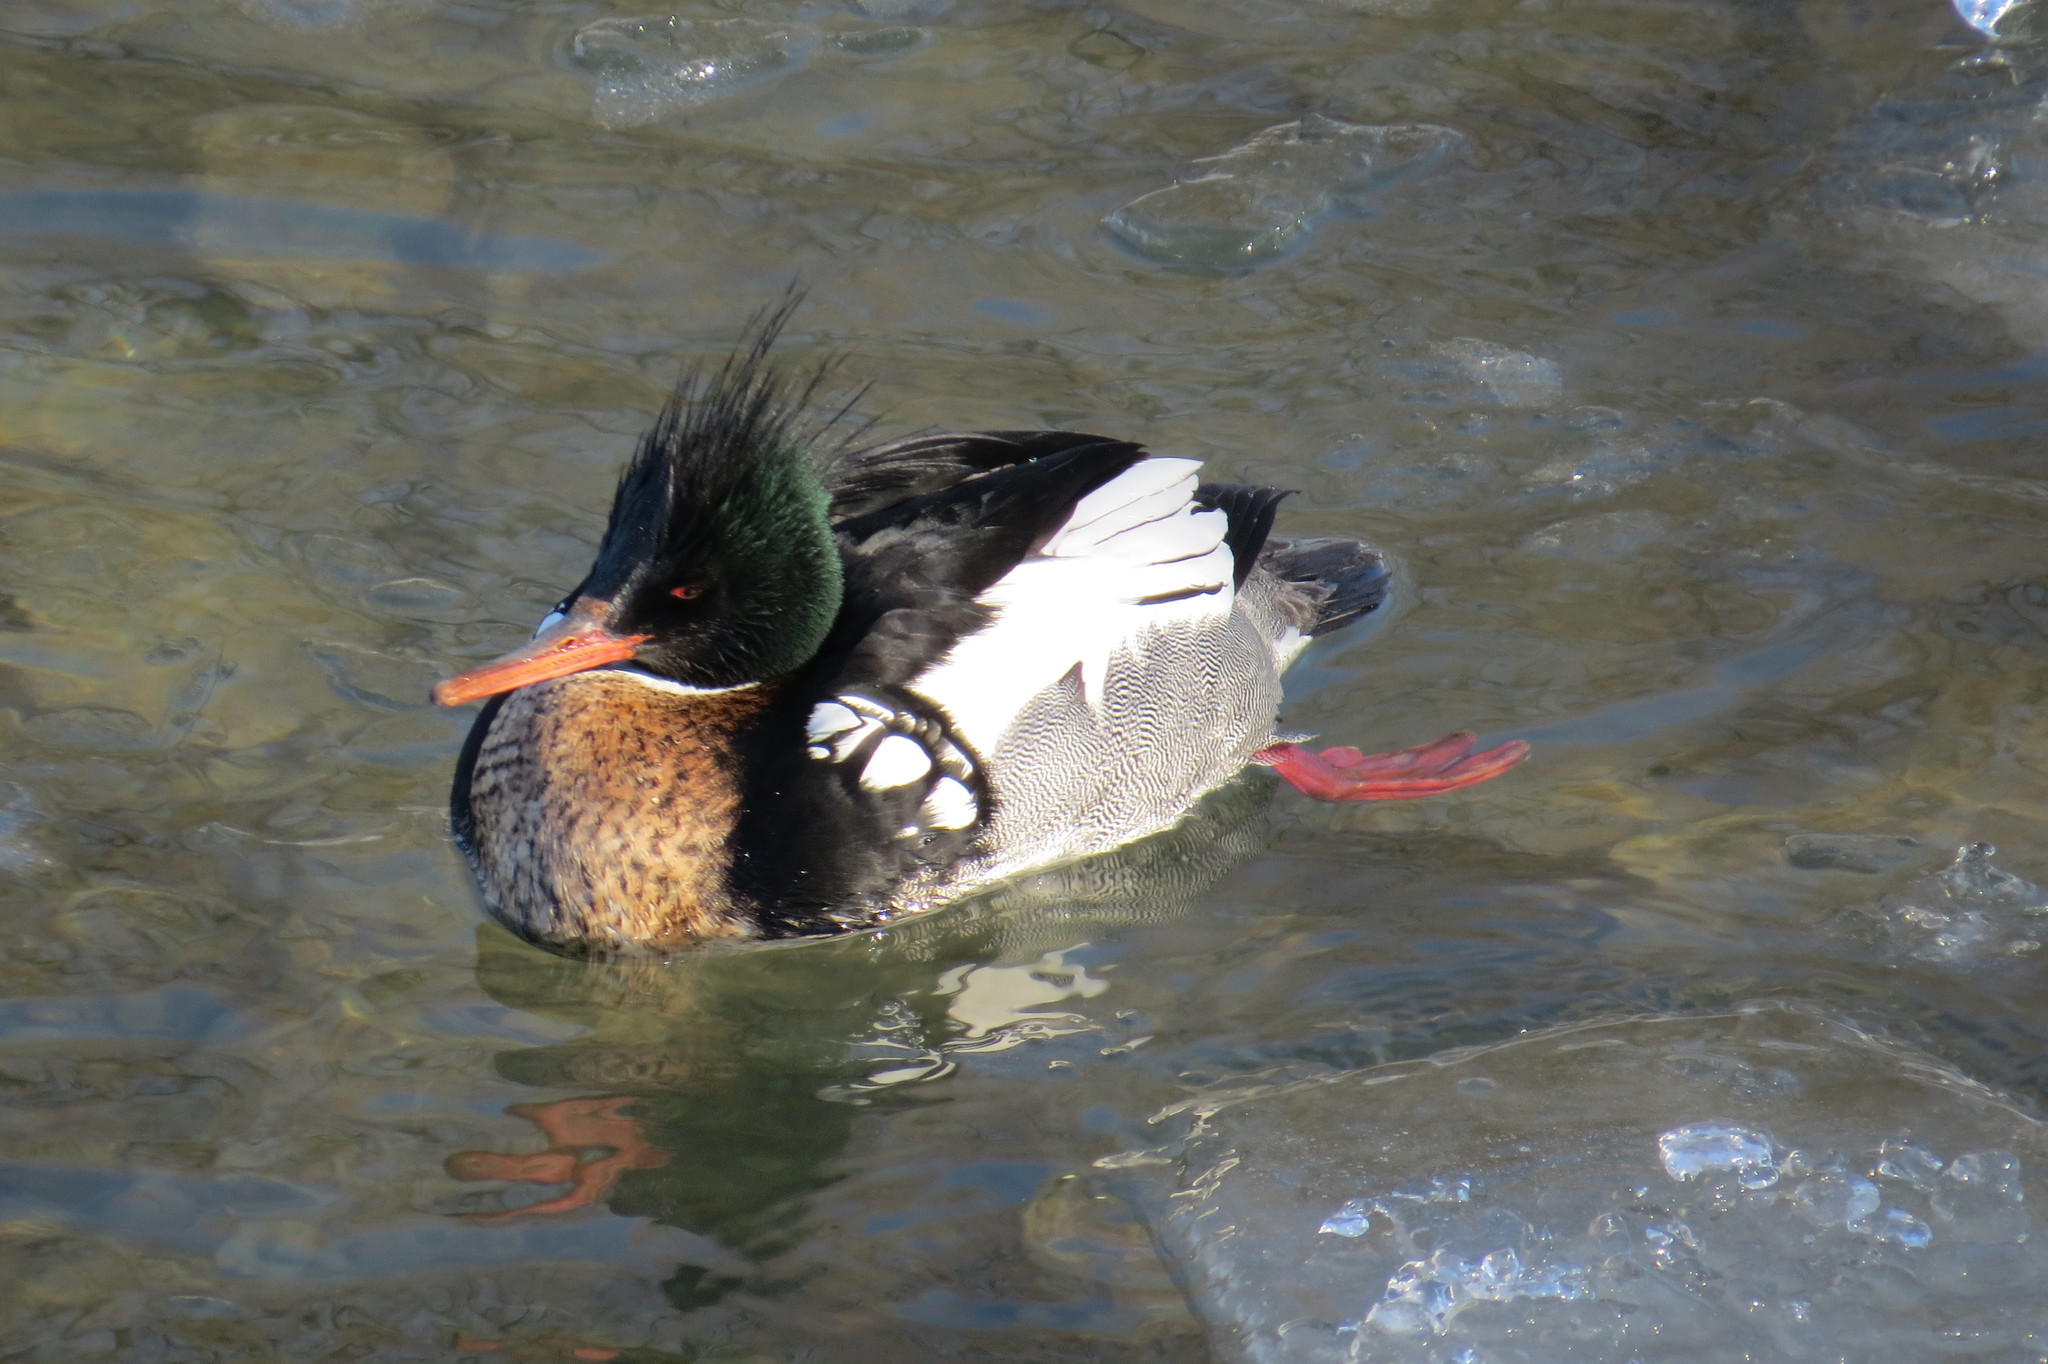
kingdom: Animalia
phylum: Chordata
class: Aves
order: Anseriformes
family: Anatidae
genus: Mergus
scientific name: Mergus serrator
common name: Red-breasted merganser
